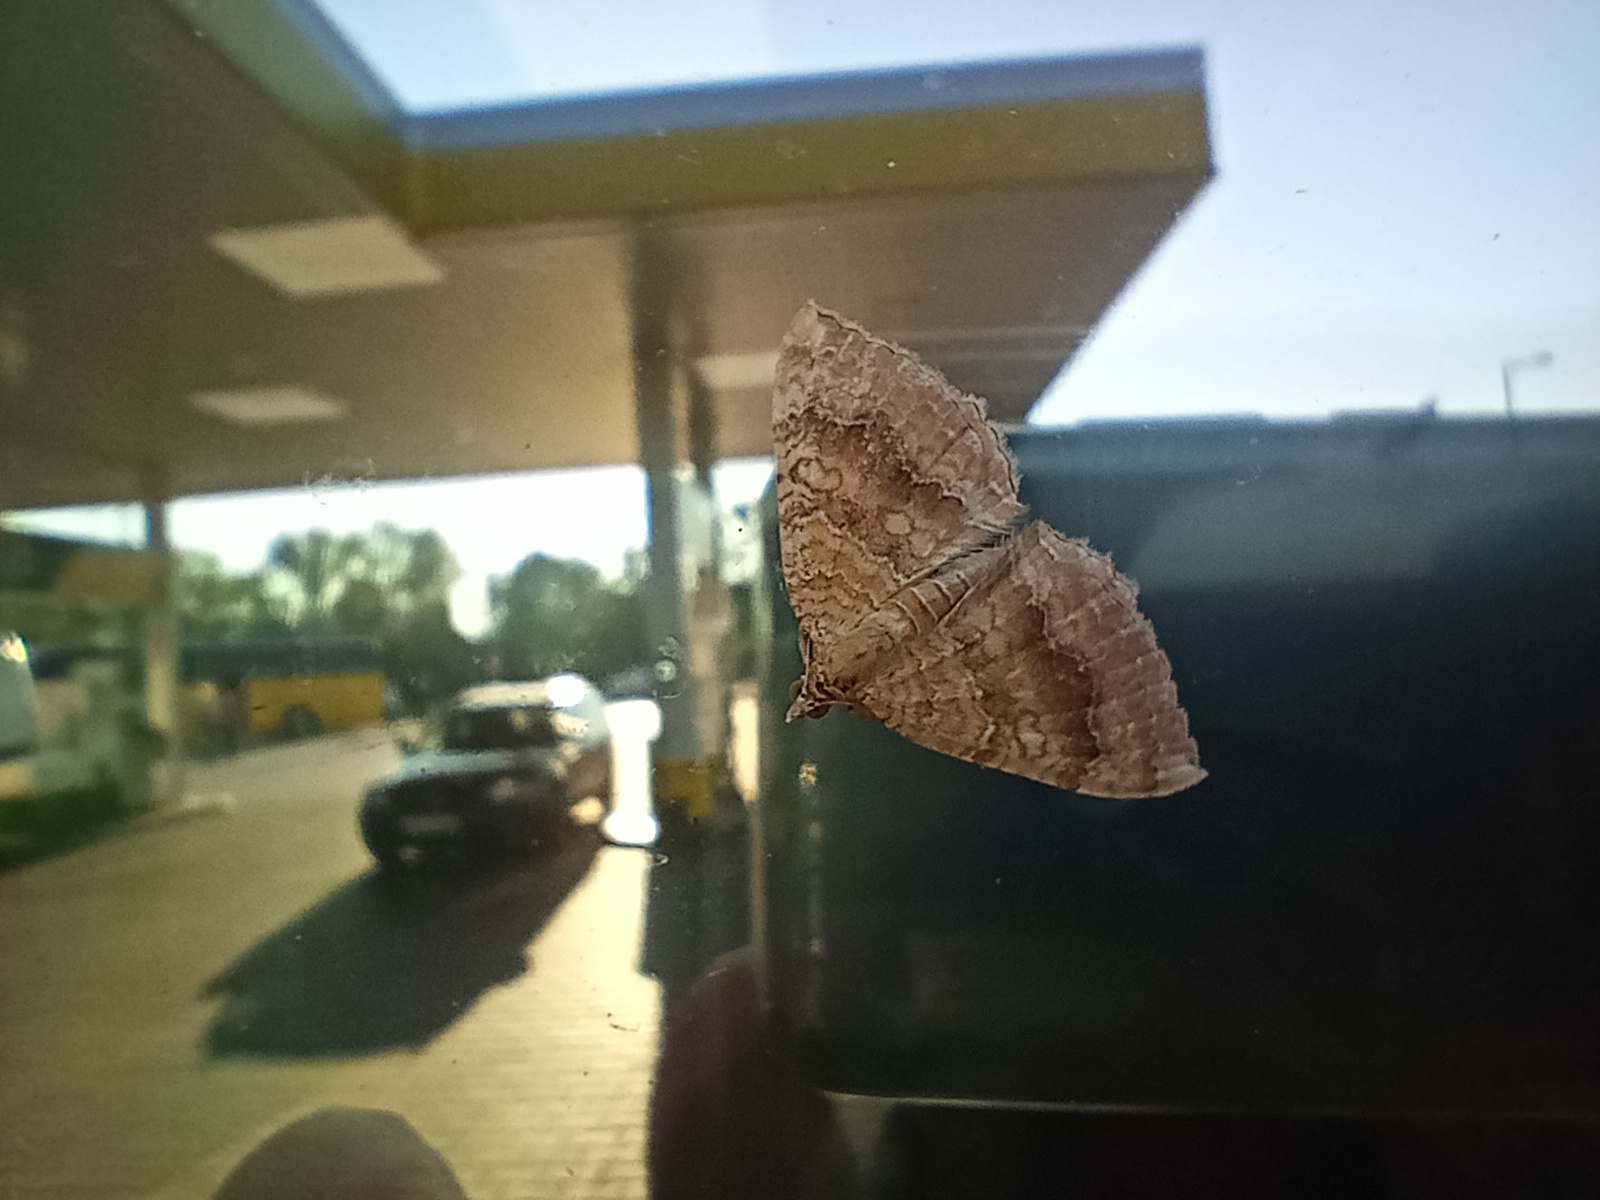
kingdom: Animalia
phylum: Arthropoda
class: Insecta
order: Lepidoptera
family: Geometridae
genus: Camptogramma
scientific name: Camptogramma bilineata
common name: Yellow shell
